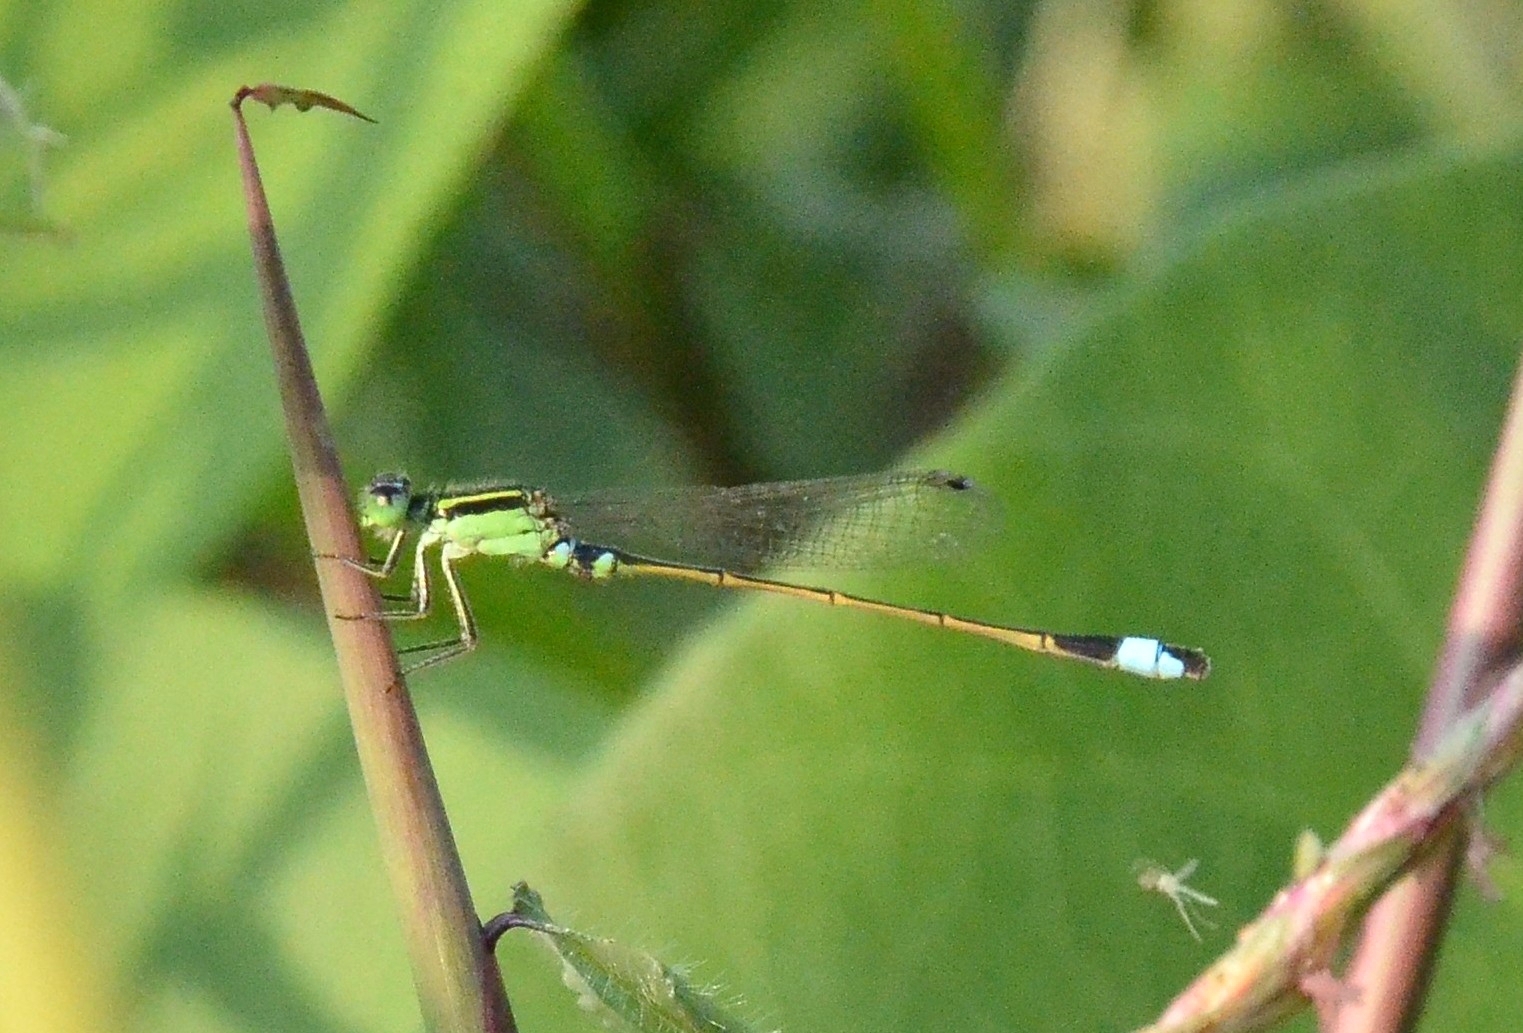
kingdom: Animalia
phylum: Arthropoda
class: Insecta
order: Odonata
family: Coenagrionidae
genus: Ischnura
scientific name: Ischnura senegalensis
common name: Tropical bluetail
